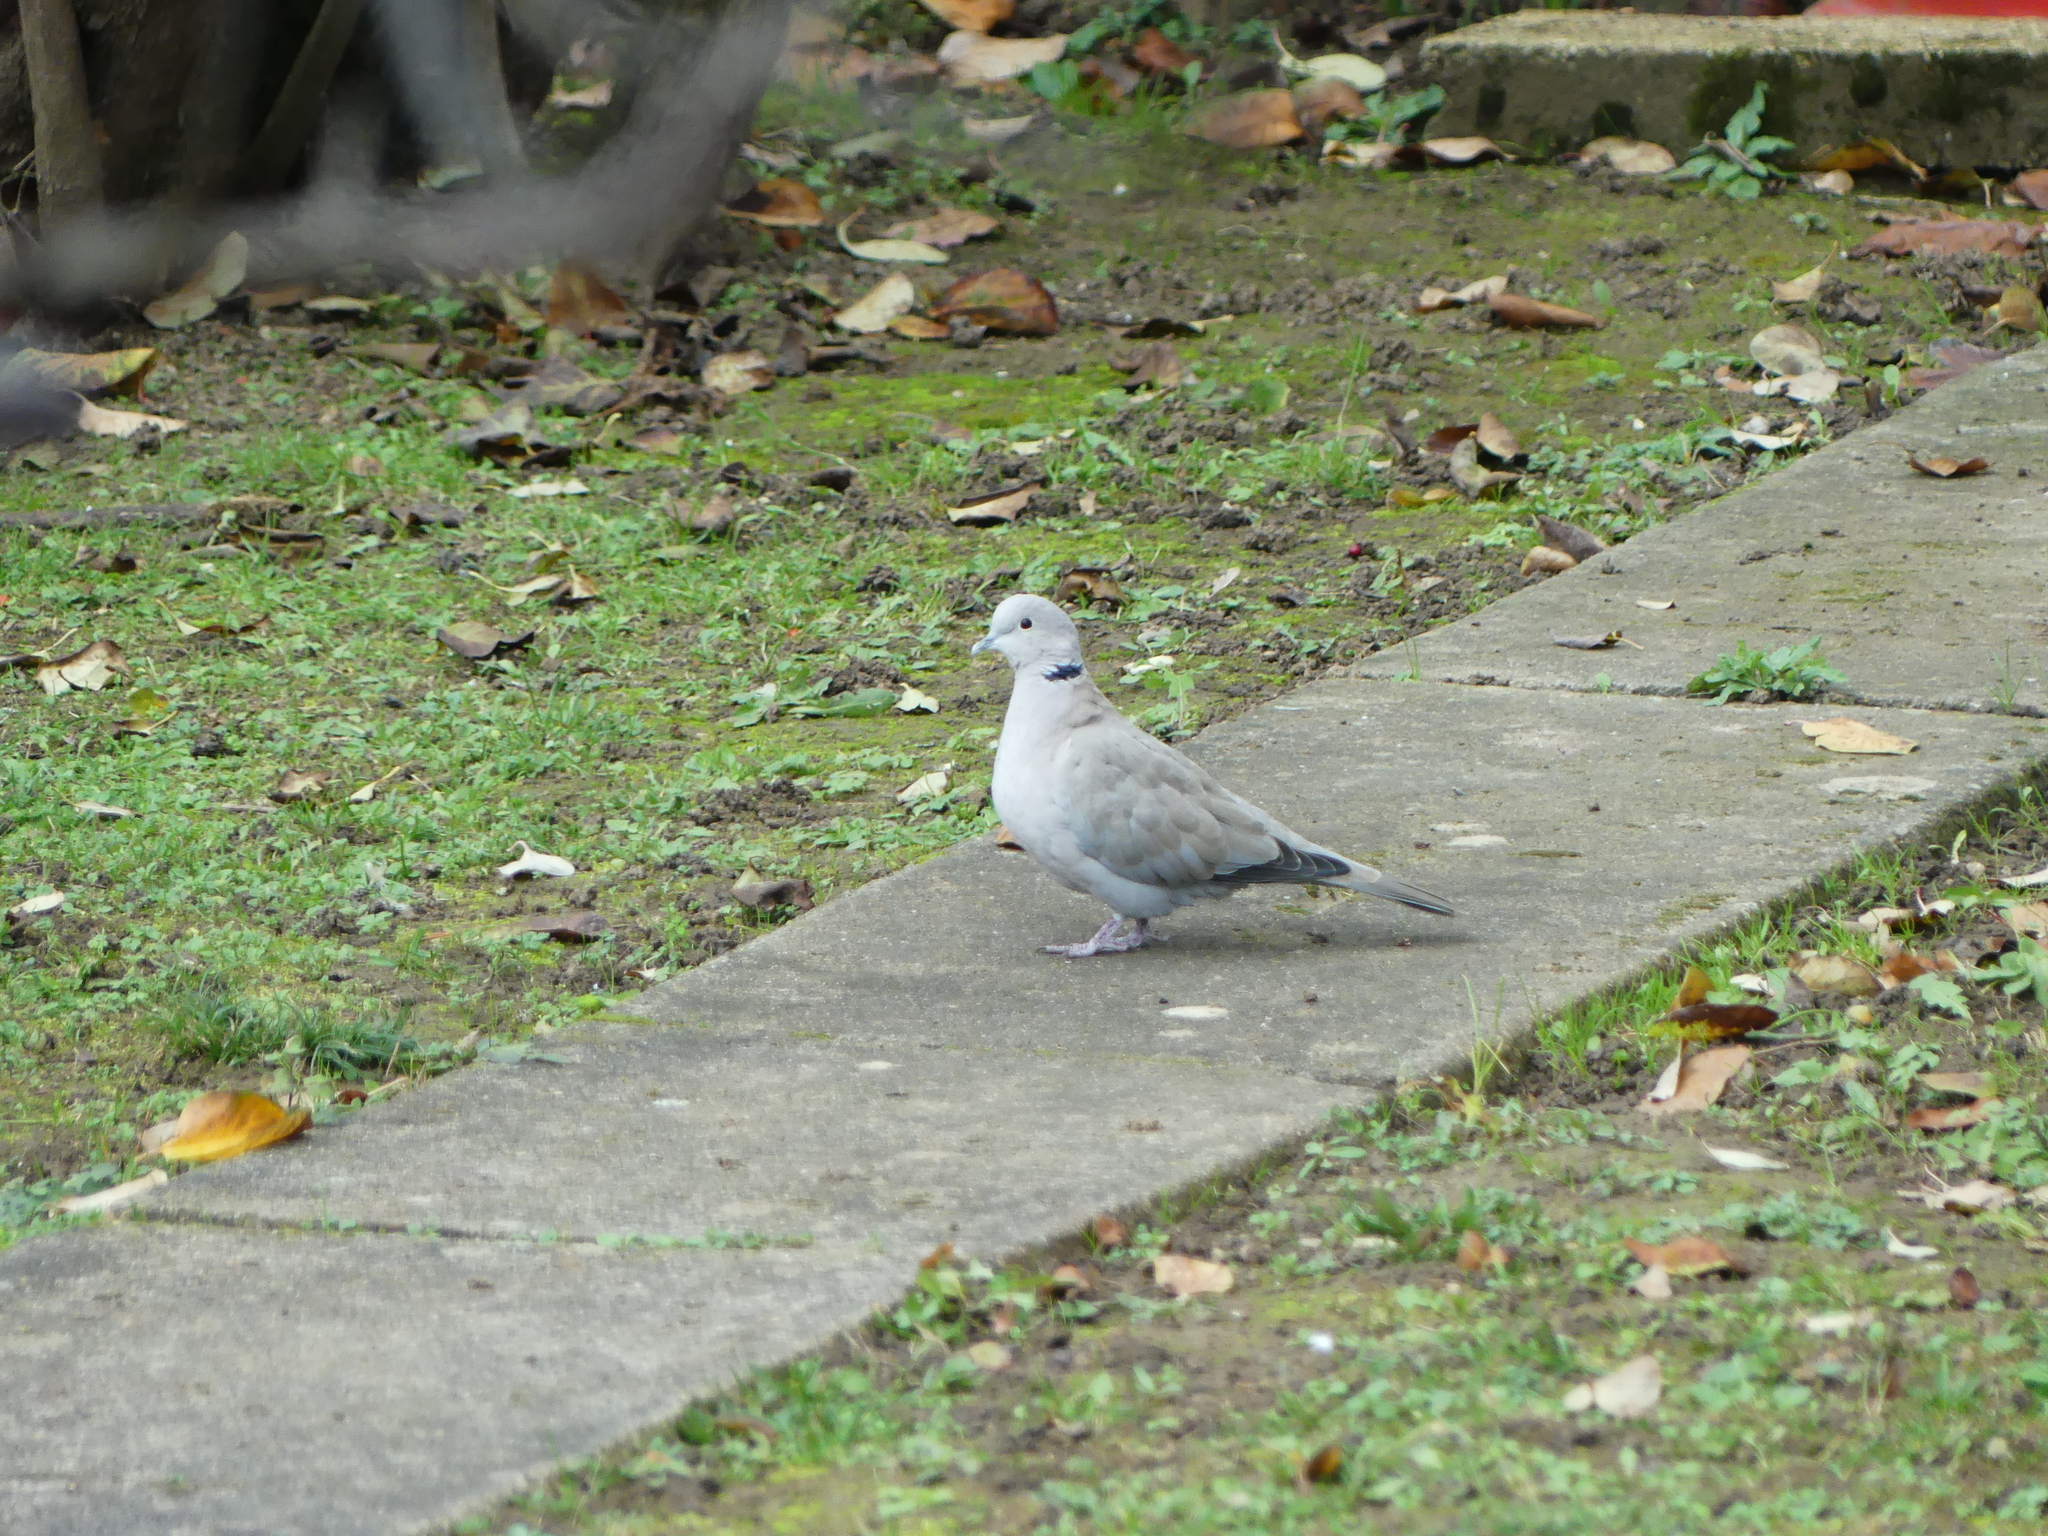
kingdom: Animalia
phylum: Chordata
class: Aves
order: Columbiformes
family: Columbidae
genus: Streptopelia
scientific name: Streptopelia decaocto
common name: Eurasian collared dove
